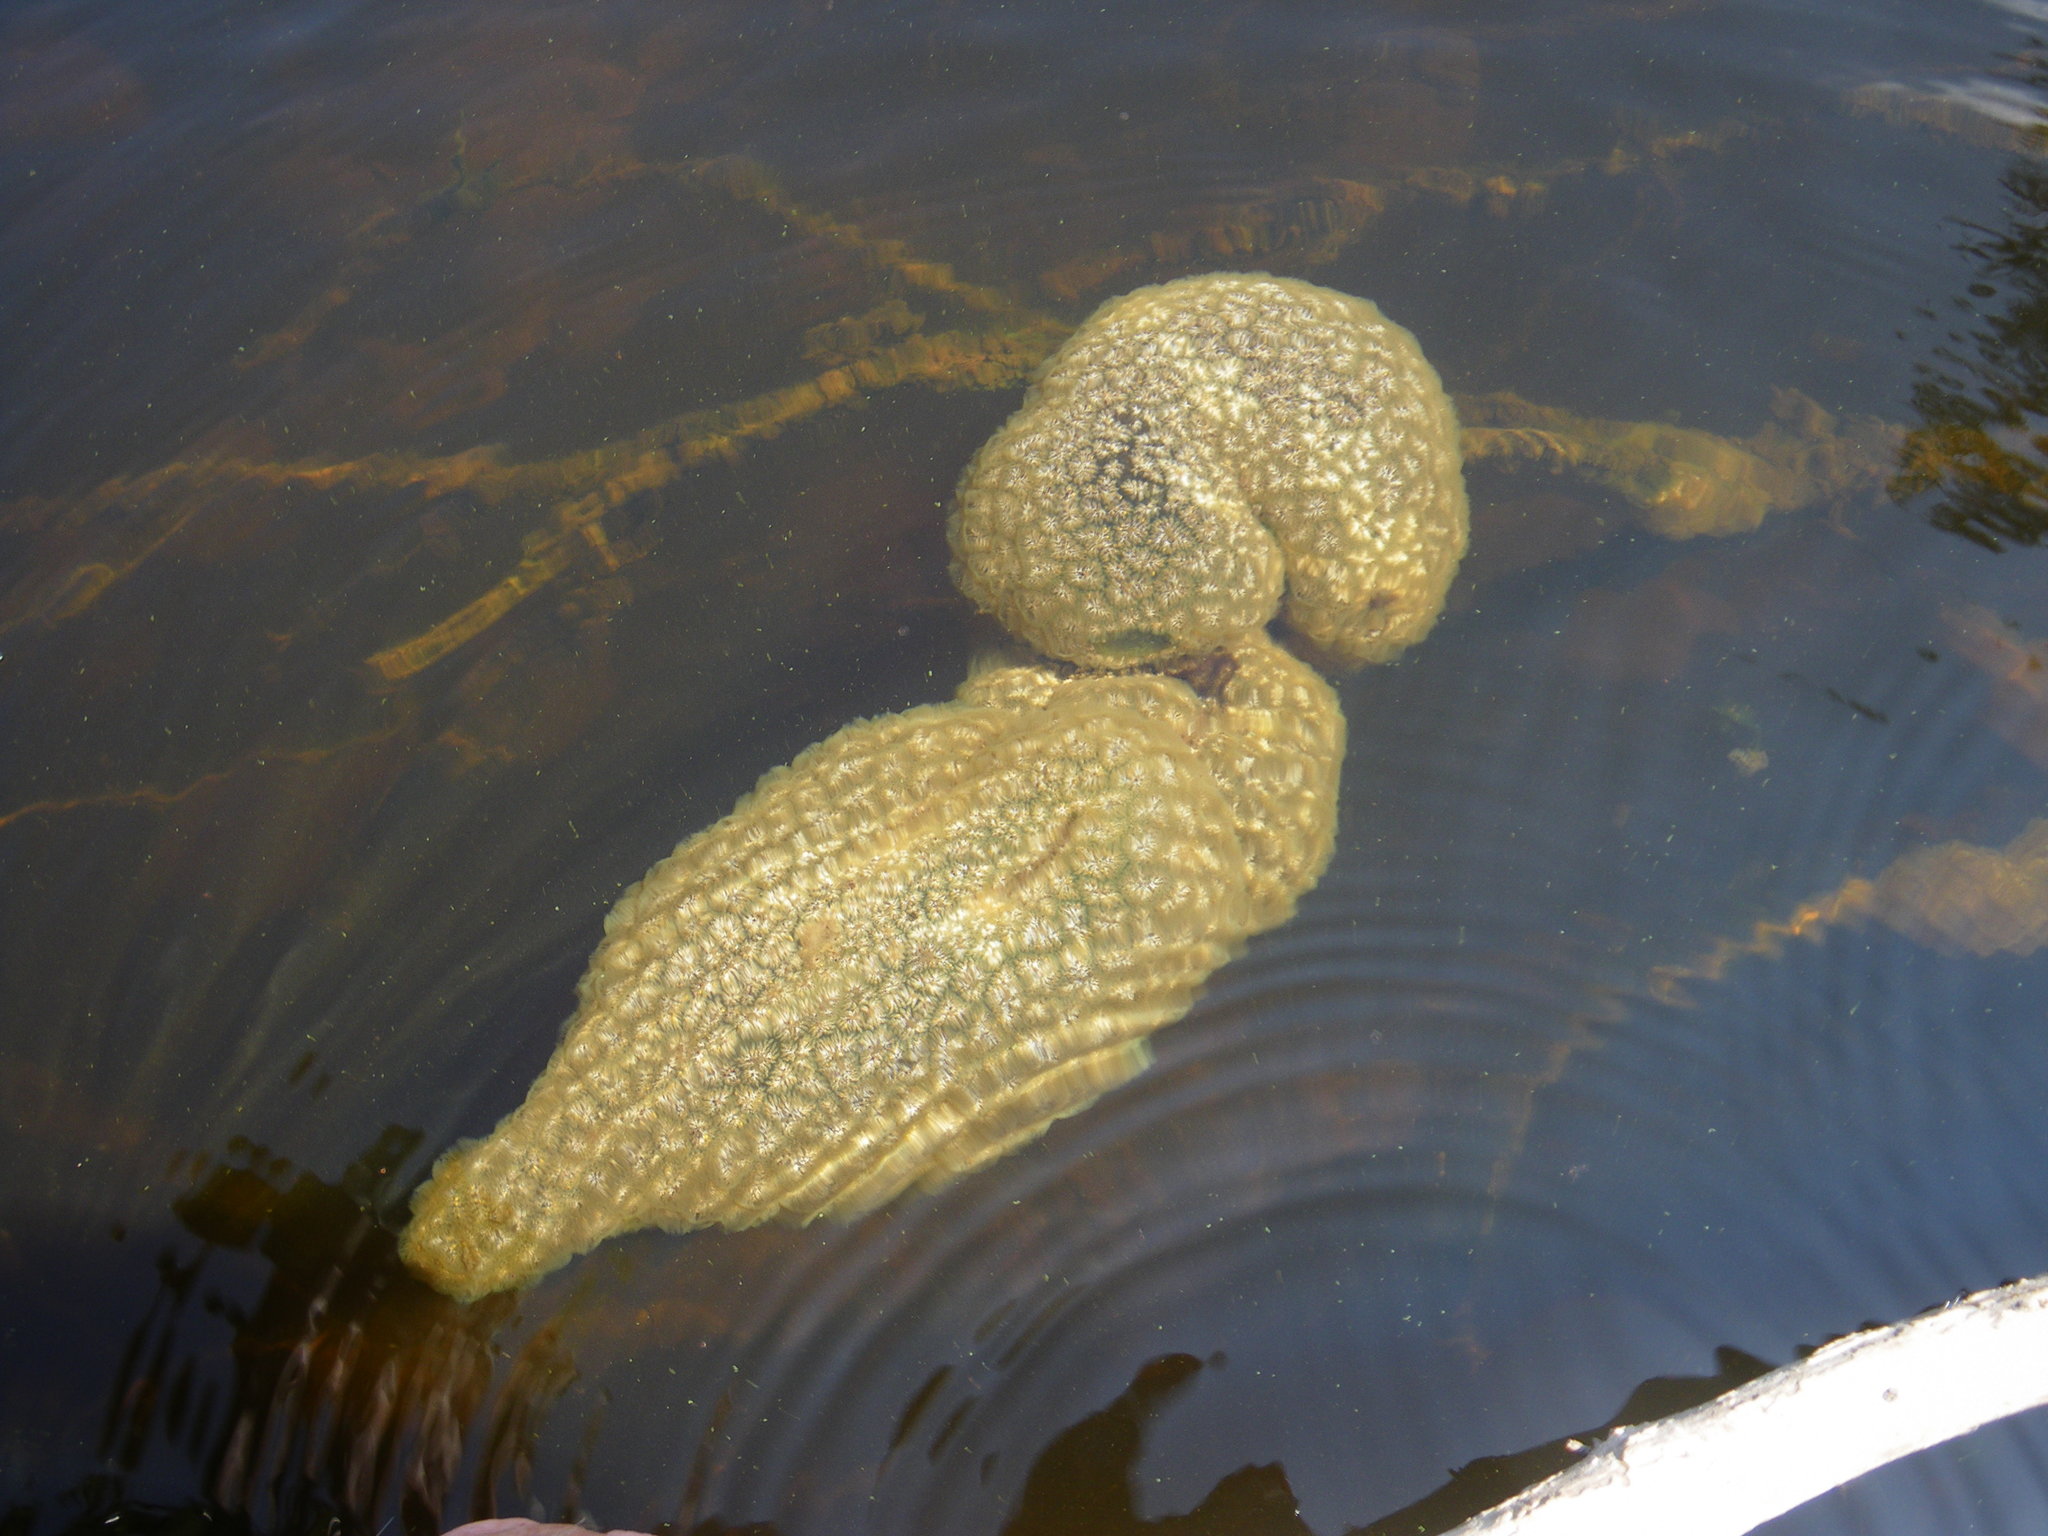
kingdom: Animalia
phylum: Bryozoa
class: Phylactolaemata
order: Plumatellida
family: Pectinatellidae
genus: Pectinatella
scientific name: Pectinatella magnifica
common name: Magnificent bryozoan
